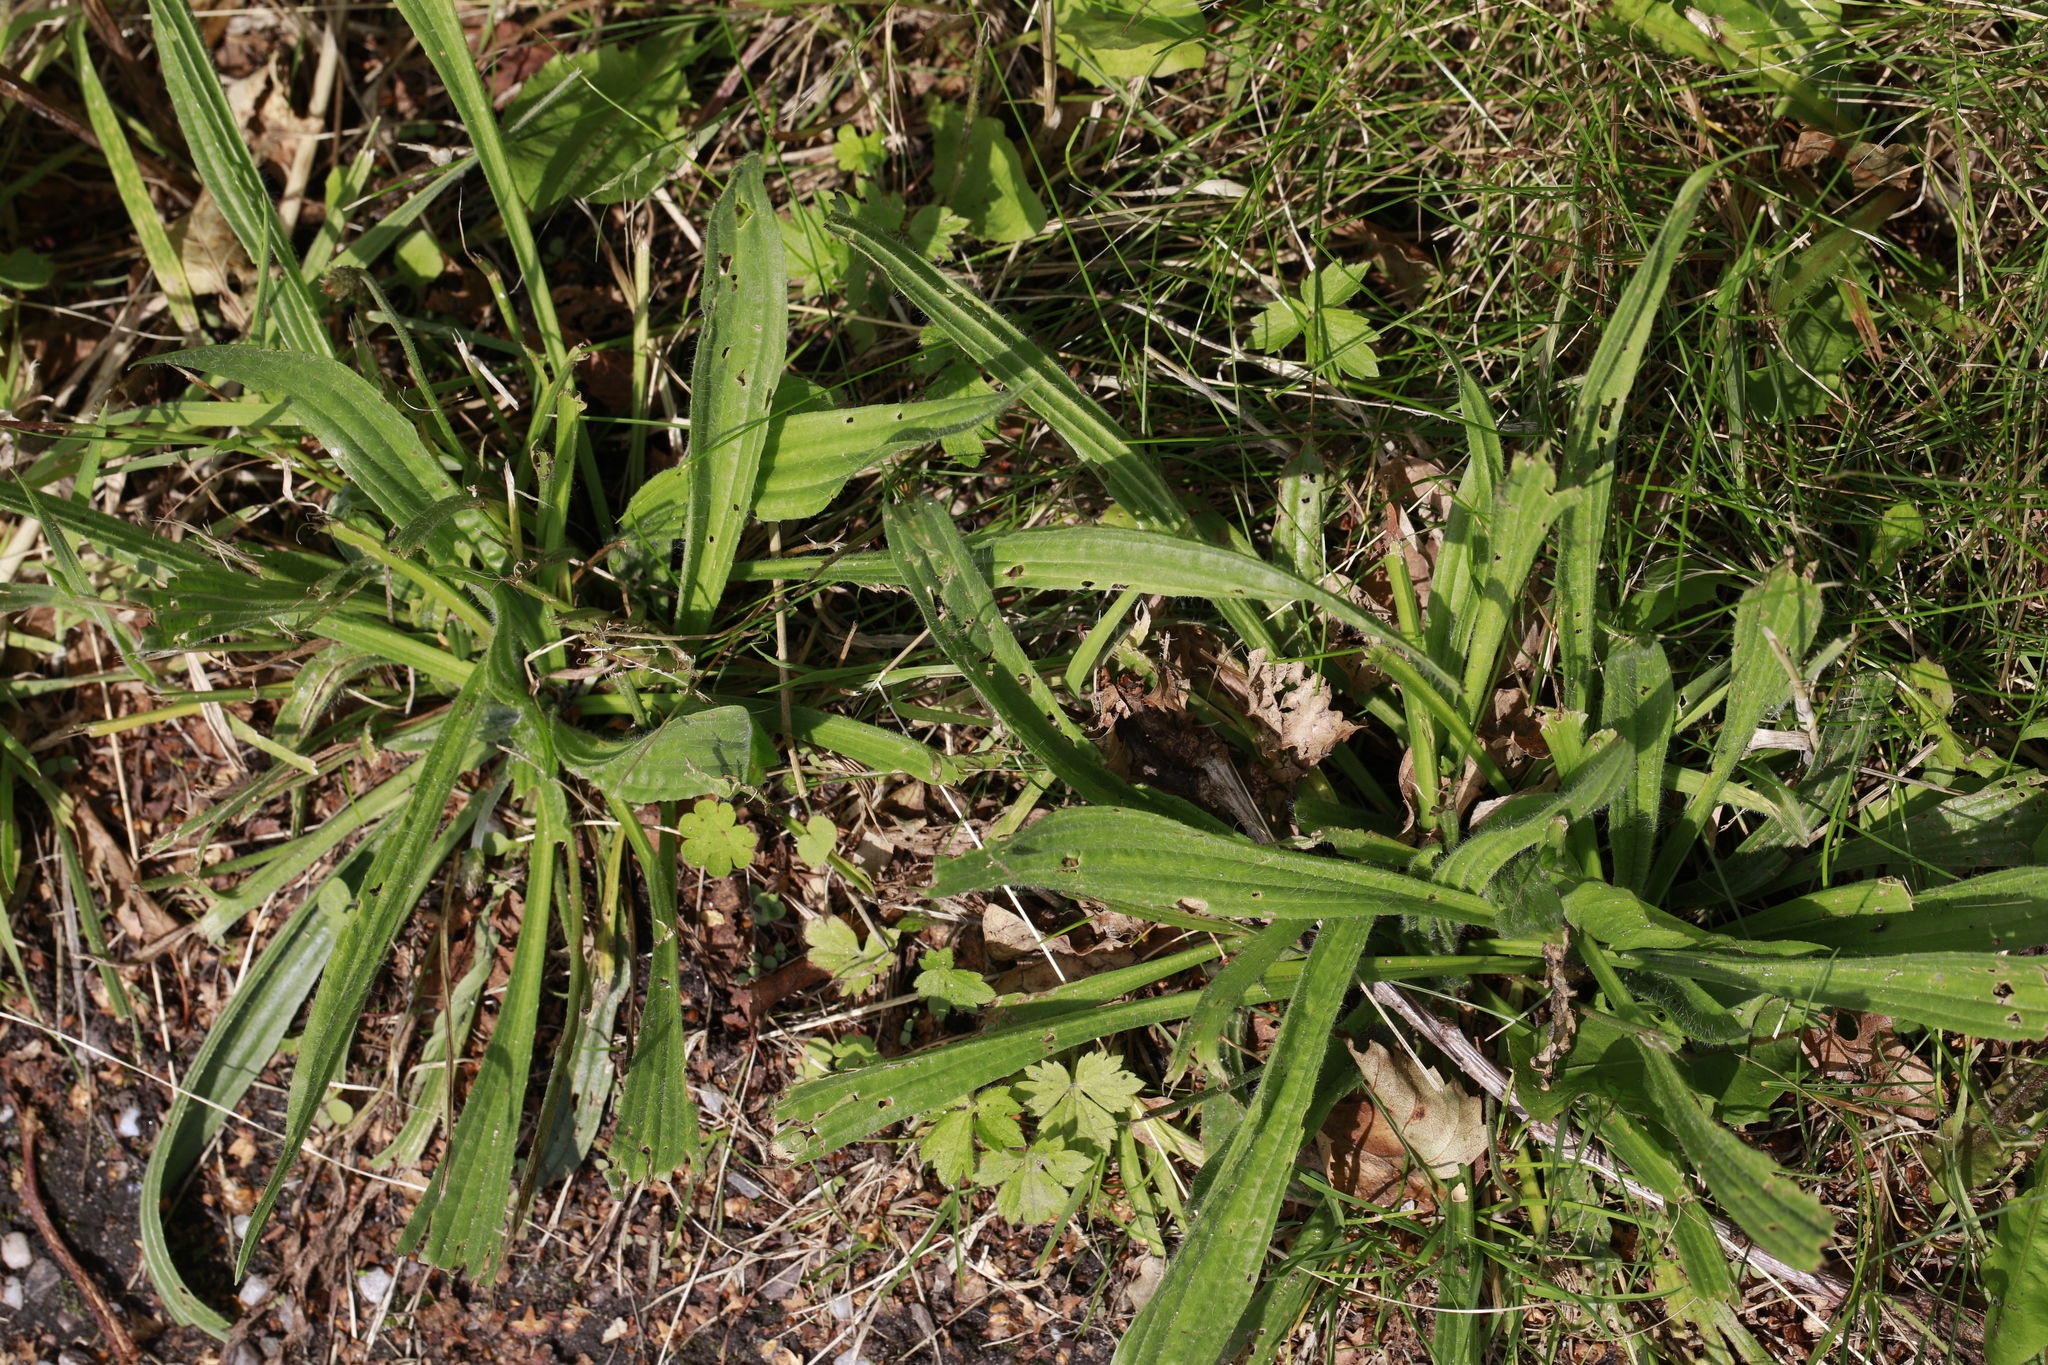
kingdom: Plantae
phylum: Tracheophyta
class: Magnoliopsida
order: Lamiales
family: Plantaginaceae
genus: Plantago
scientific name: Plantago lanceolata
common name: Ribwort plantain
